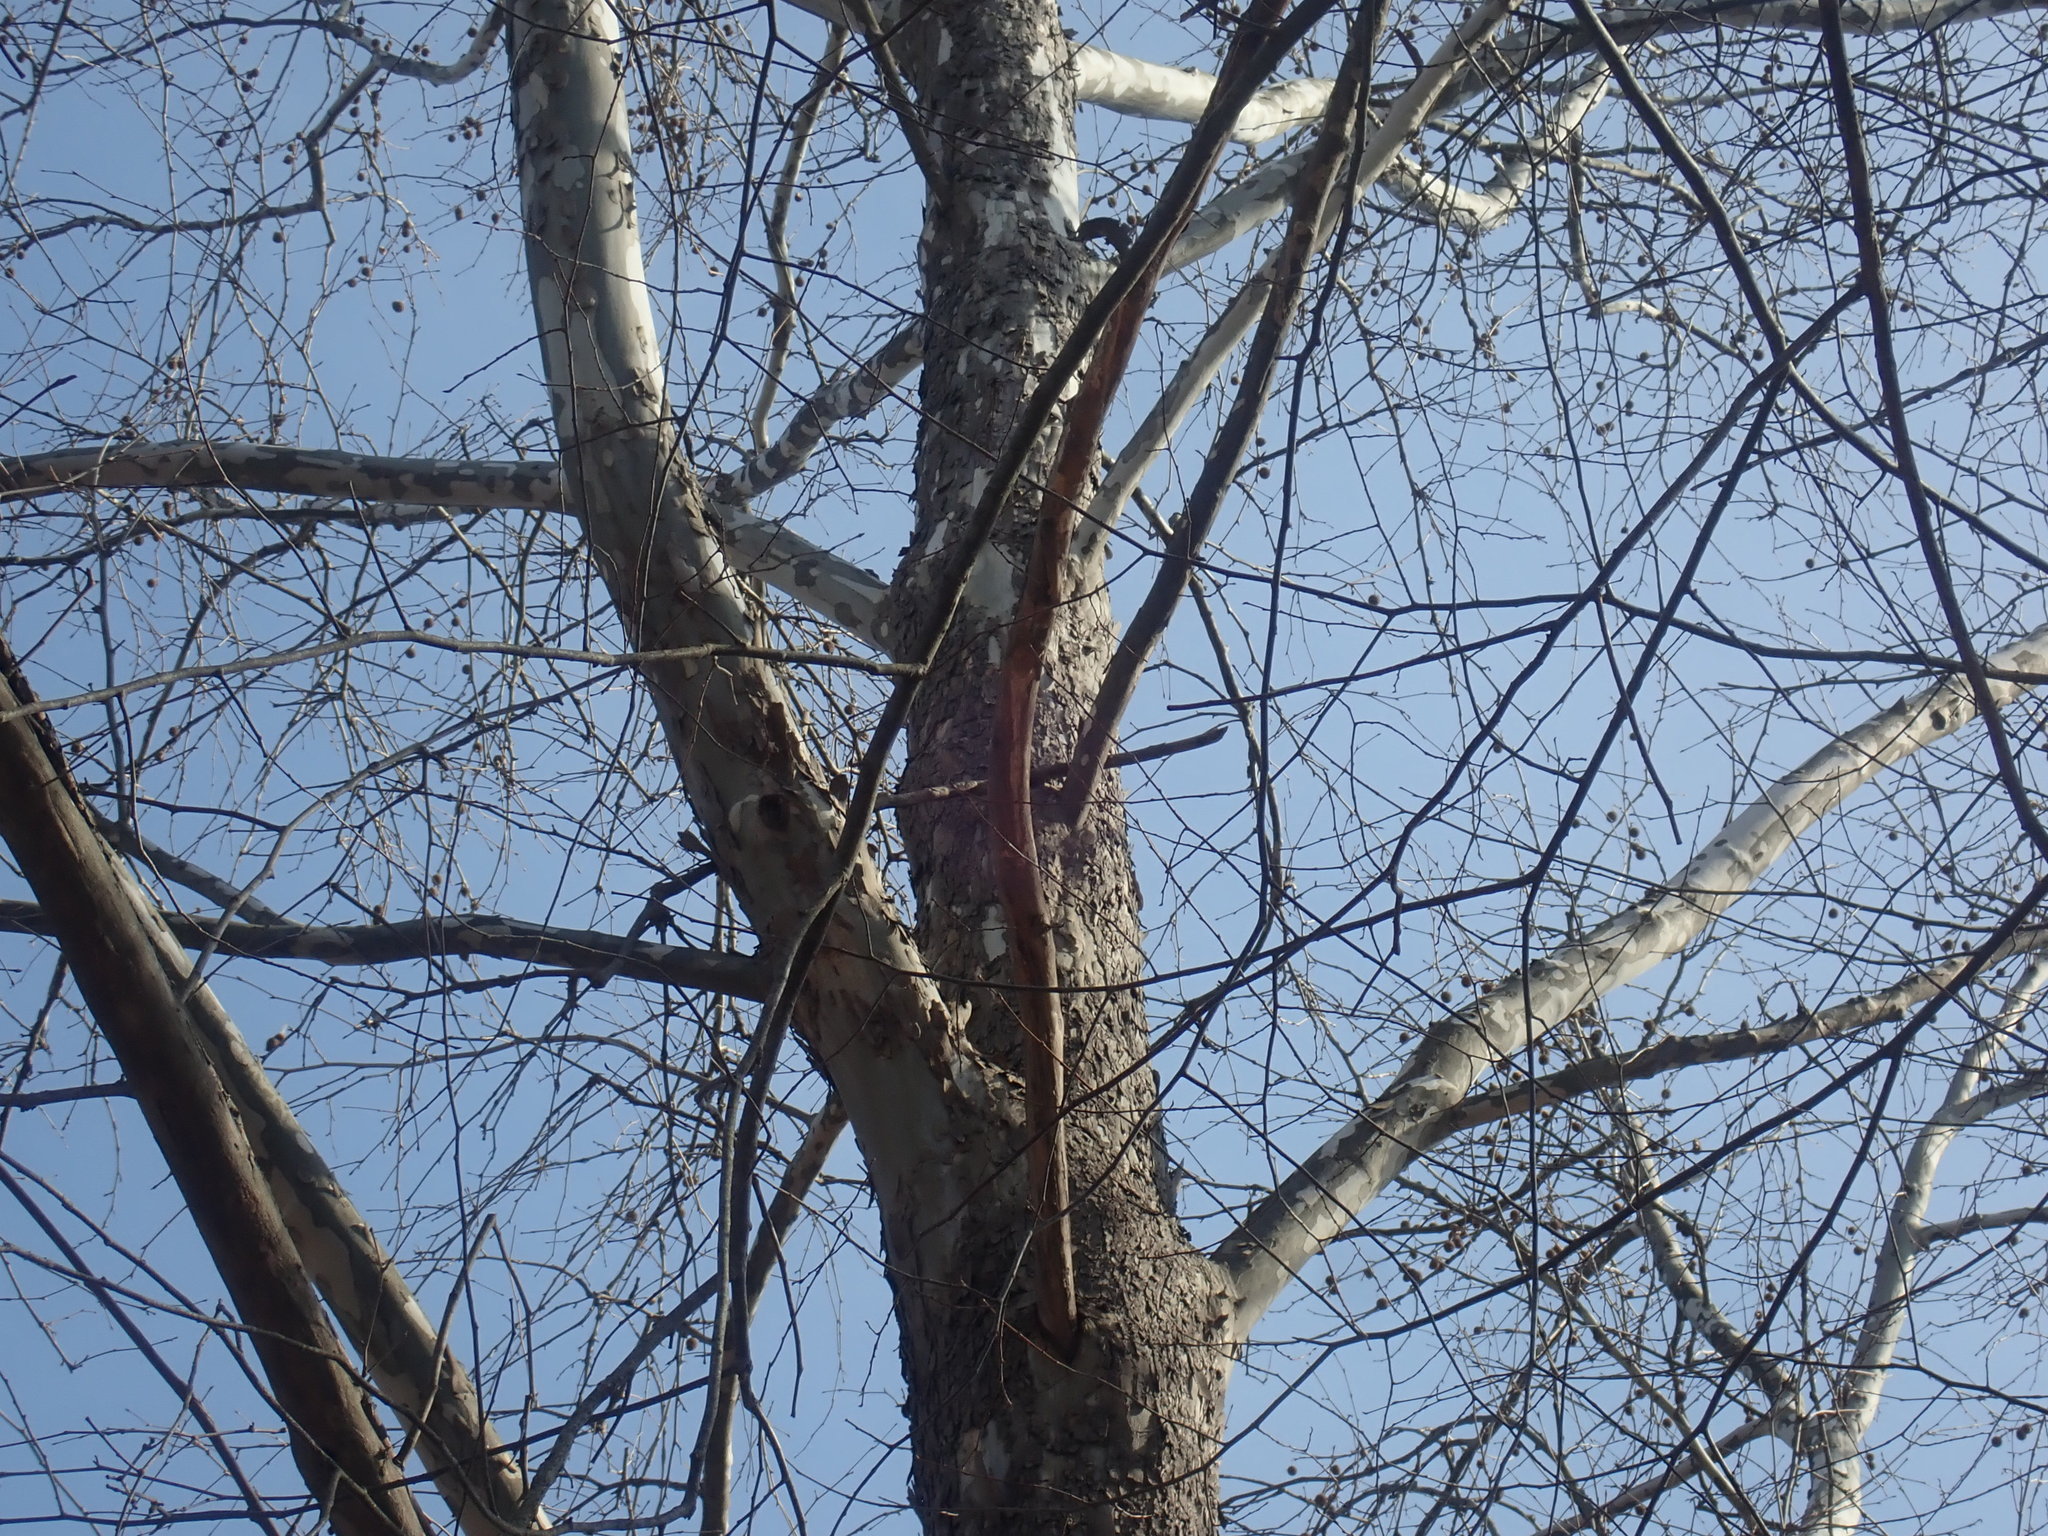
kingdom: Plantae
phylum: Tracheophyta
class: Magnoliopsida
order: Proteales
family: Platanaceae
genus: Platanus
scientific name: Platanus occidentalis
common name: American sycamore
